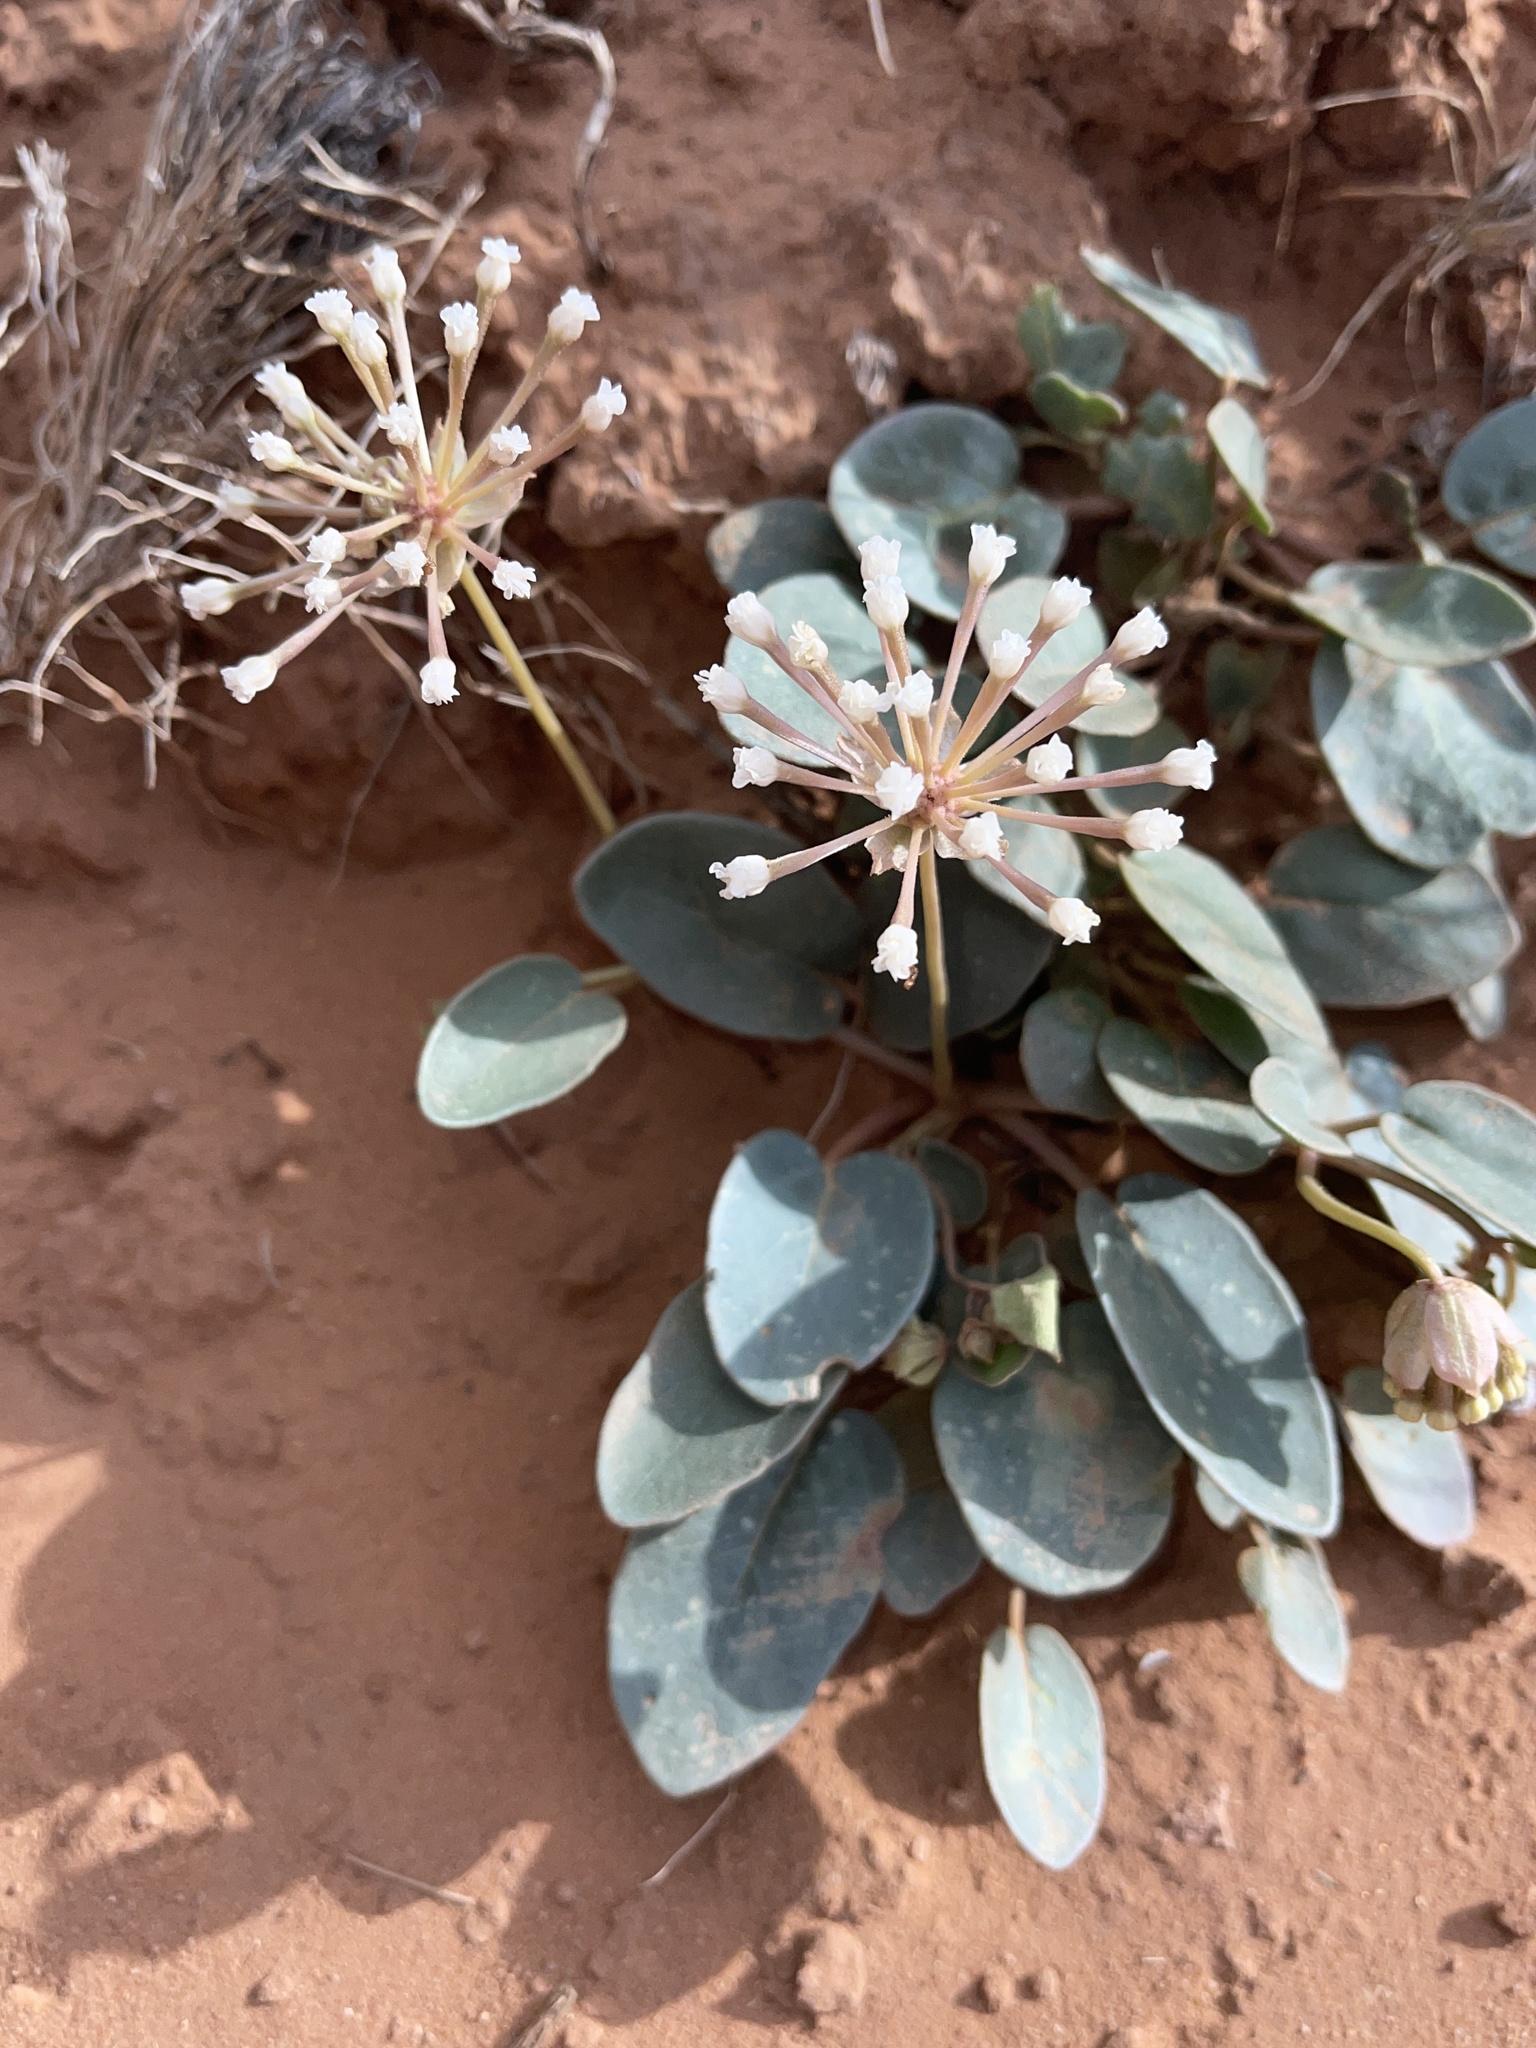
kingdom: Plantae
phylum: Tracheophyta
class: Magnoliopsida
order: Caryophyllales
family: Nyctaginaceae
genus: Abronia
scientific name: Abronia elliptica
